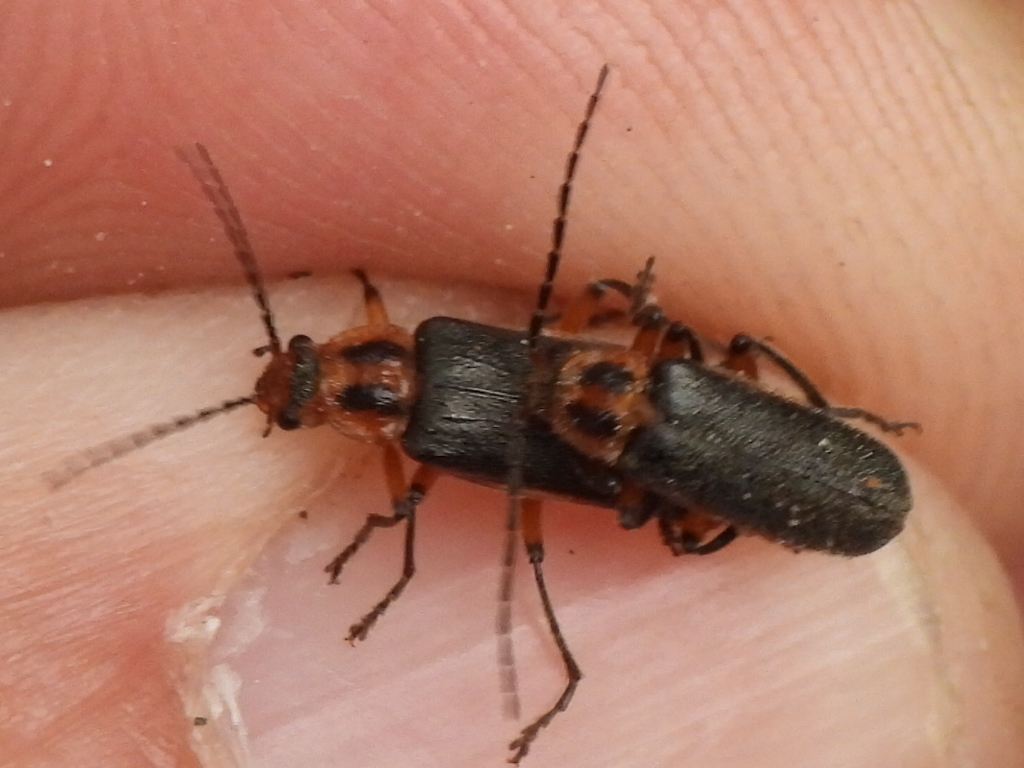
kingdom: Animalia
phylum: Arthropoda
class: Insecta
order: Coleoptera
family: Cantharidae
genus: Atalantycha
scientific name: Atalantycha bilineata
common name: Two-lined leatherwing
